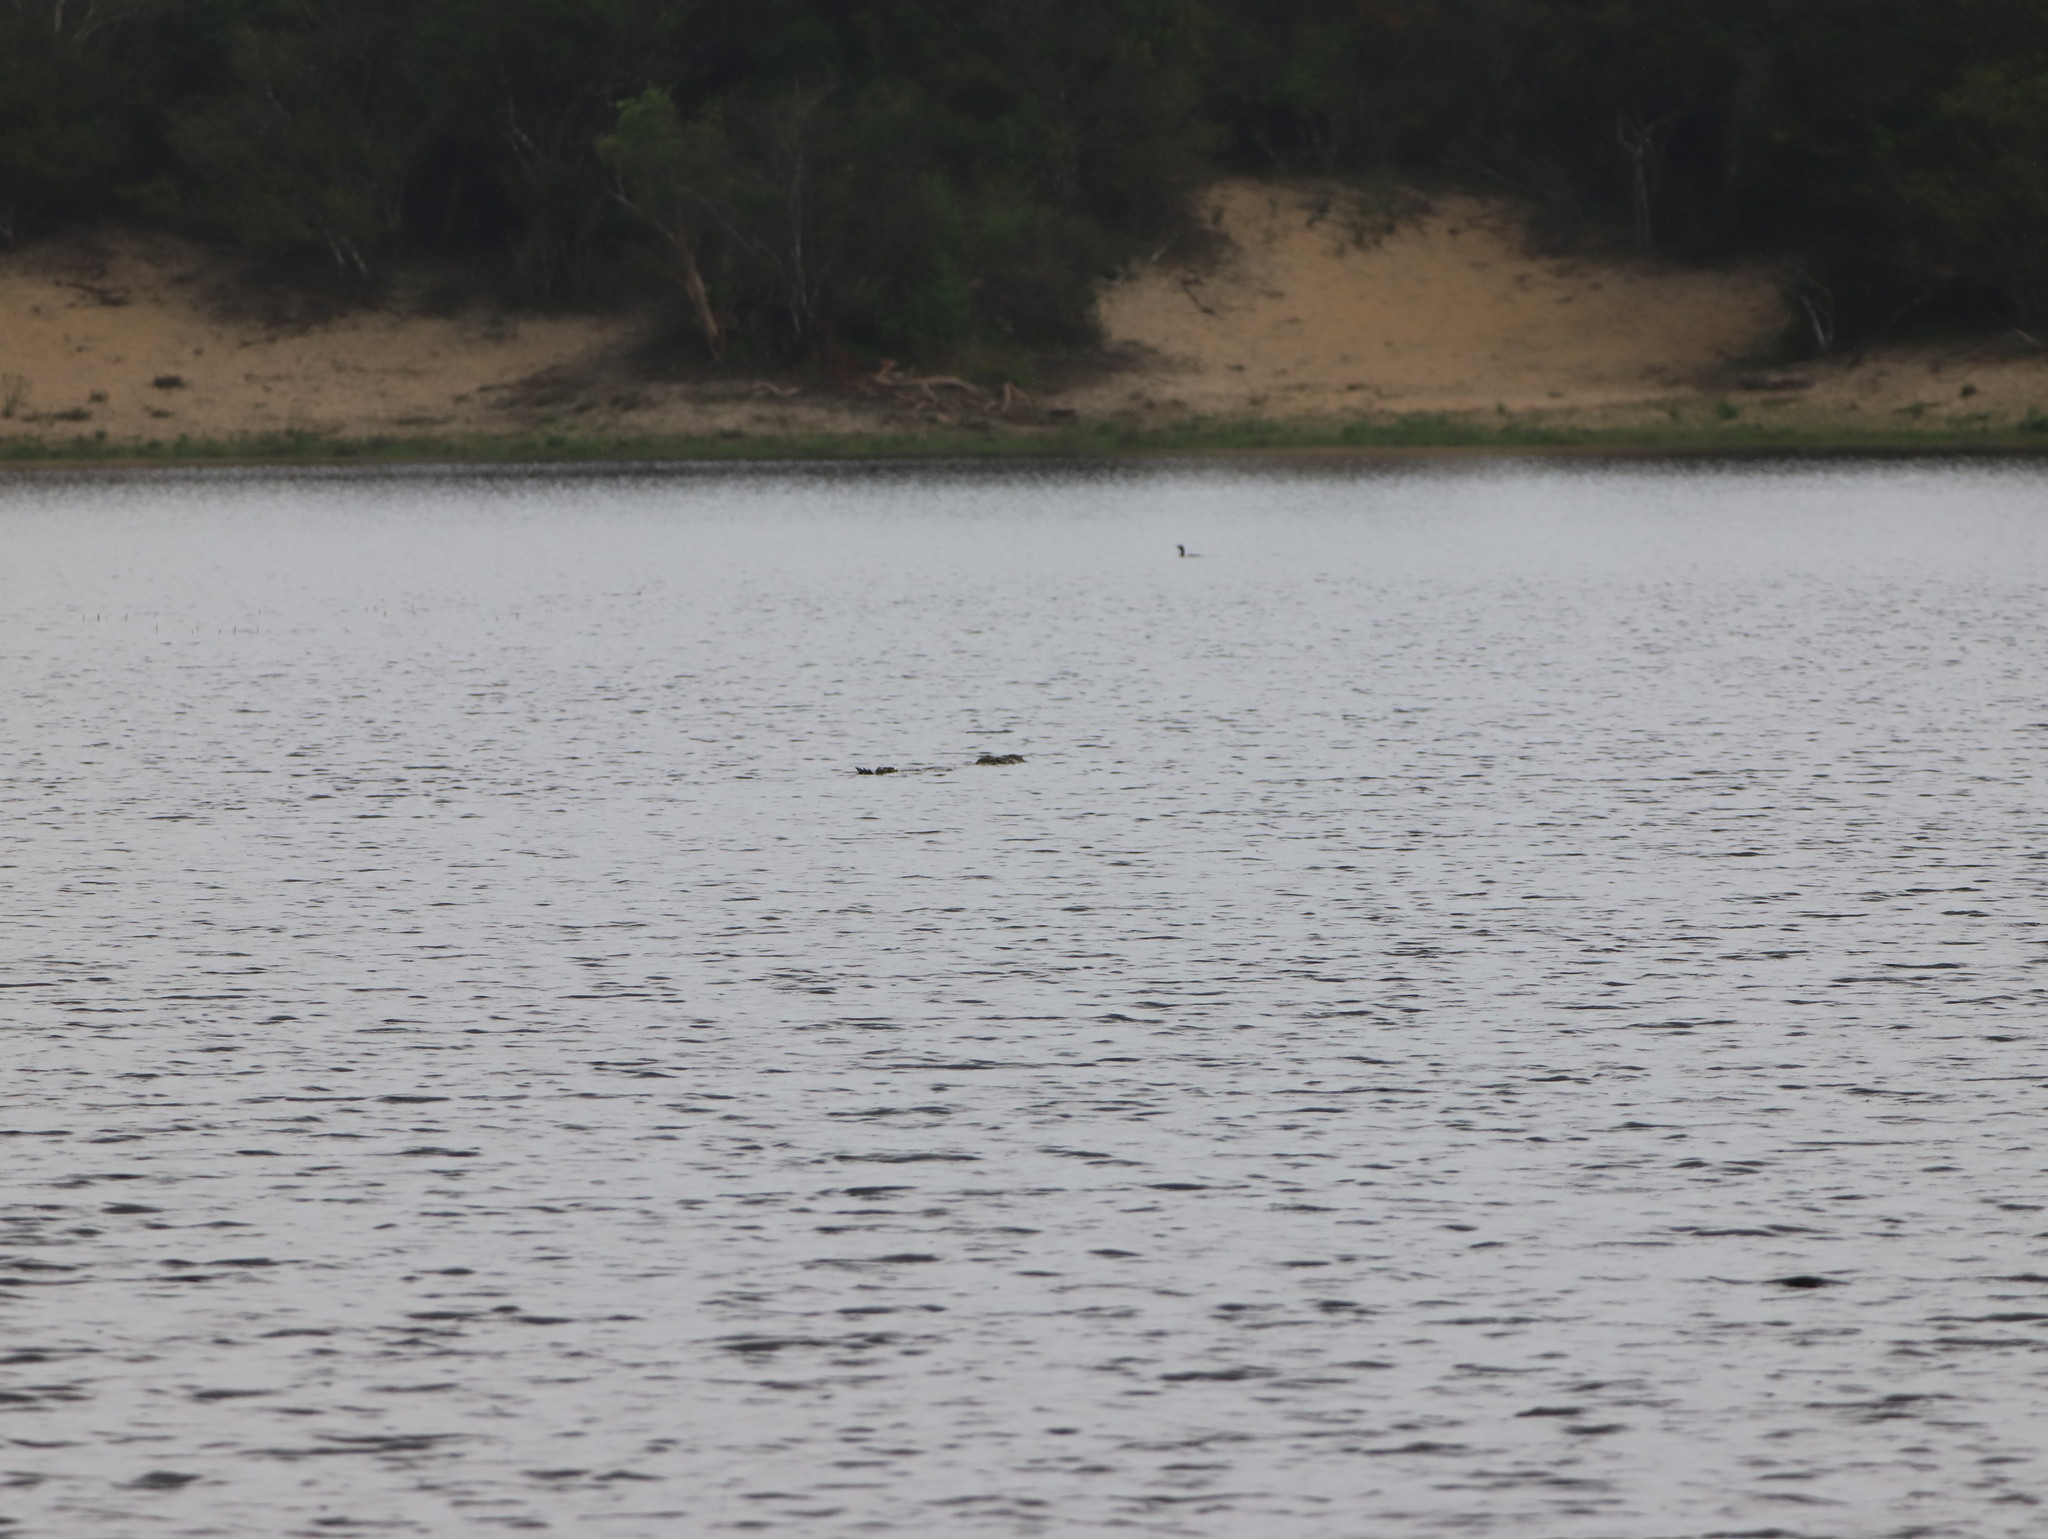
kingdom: Animalia
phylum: Chordata
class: Crocodylia
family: Crocodylidae
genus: Crocodylus
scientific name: Crocodylus palustris
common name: Mugger crocodile
